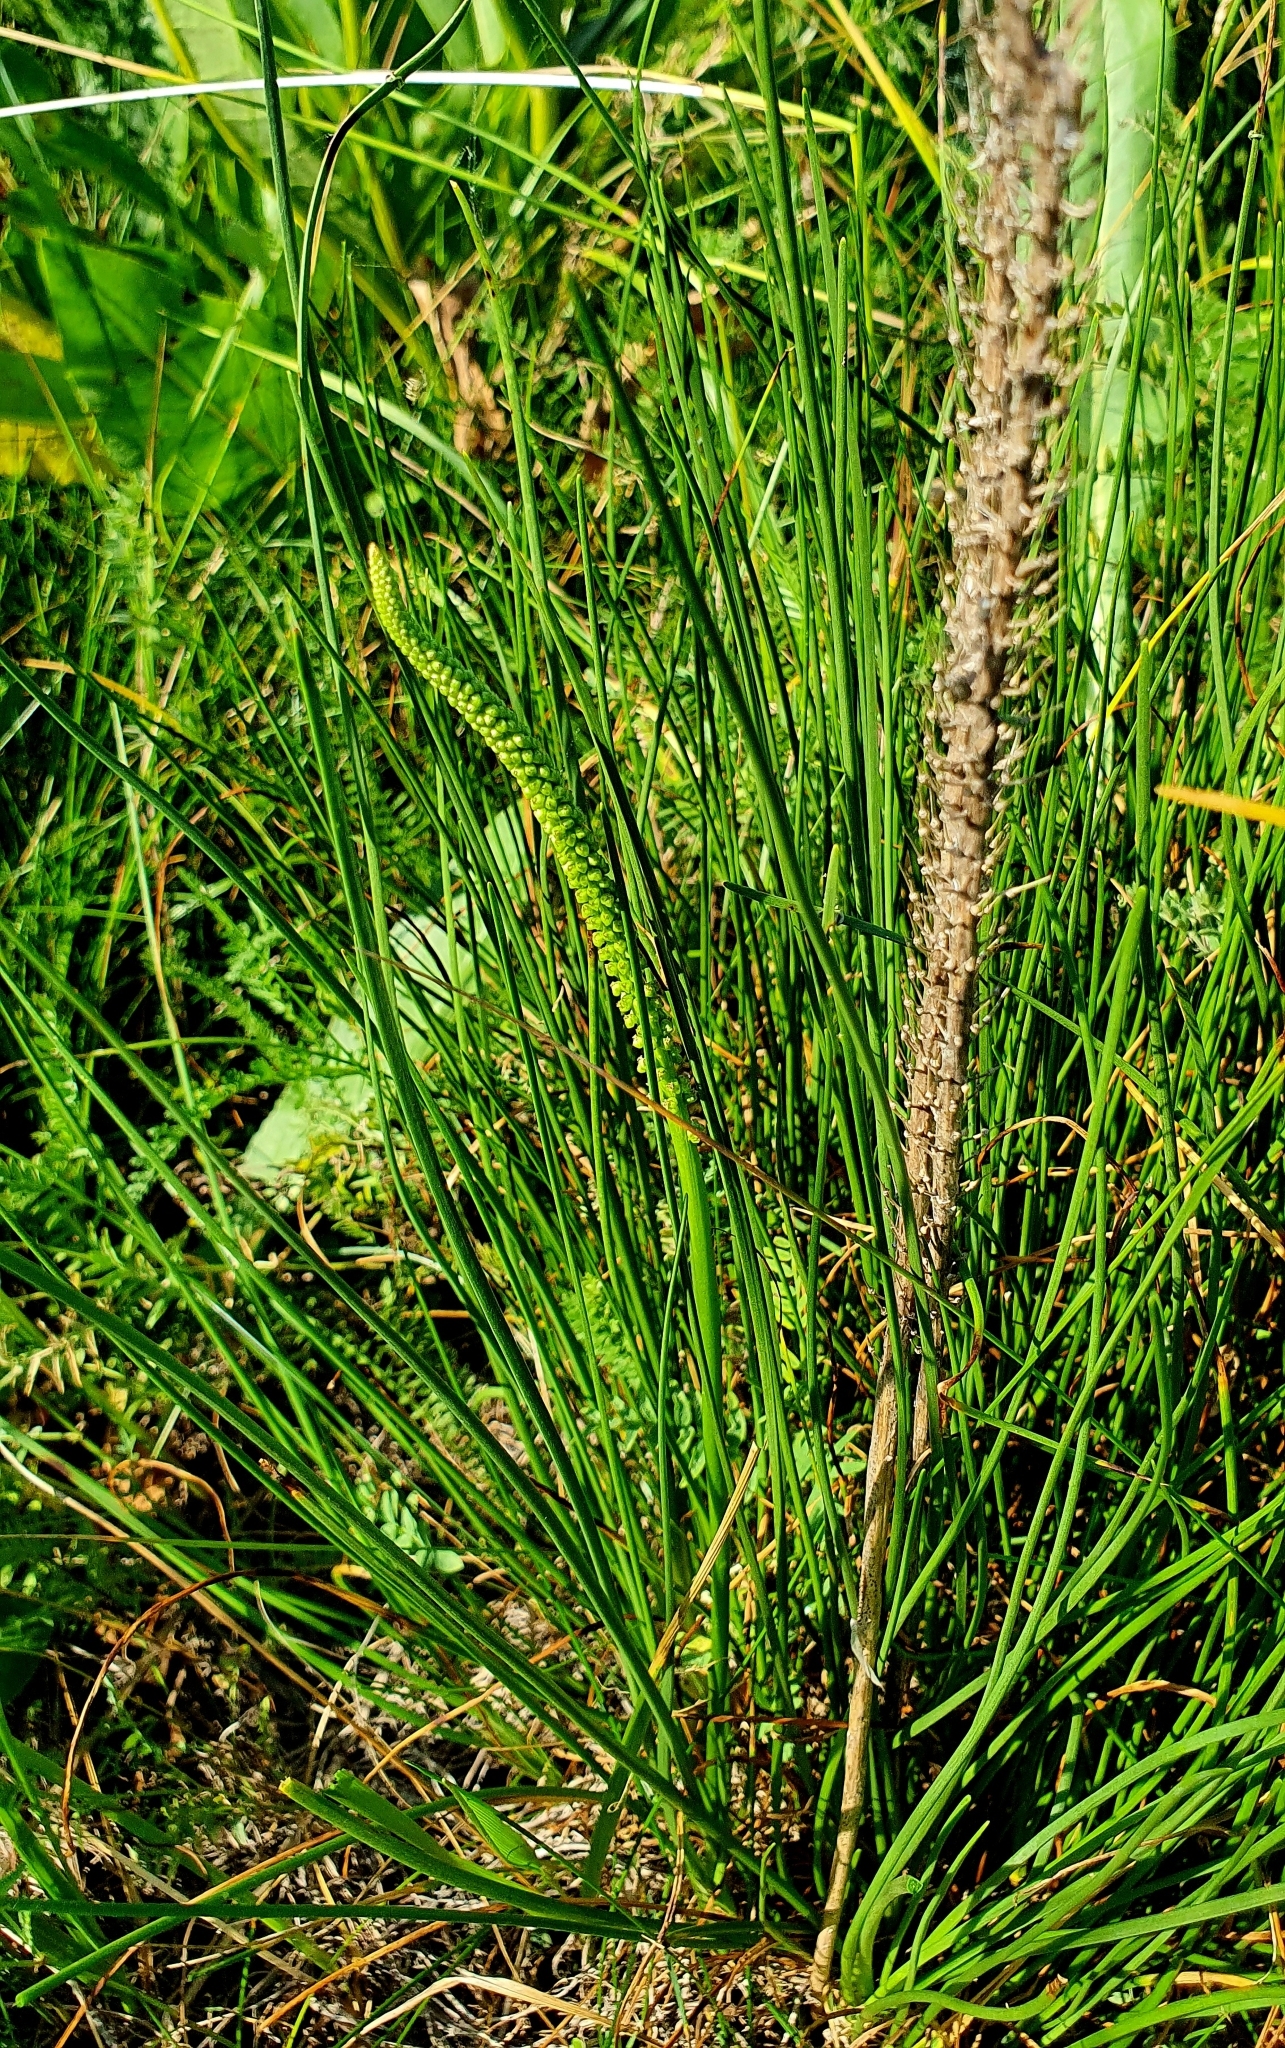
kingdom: Plantae
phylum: Tracheophyta
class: Liliopsida
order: Alismatales
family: Juncaginaceae
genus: Triglochin
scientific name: Triglochin maritima
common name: Sea arrowgrass
